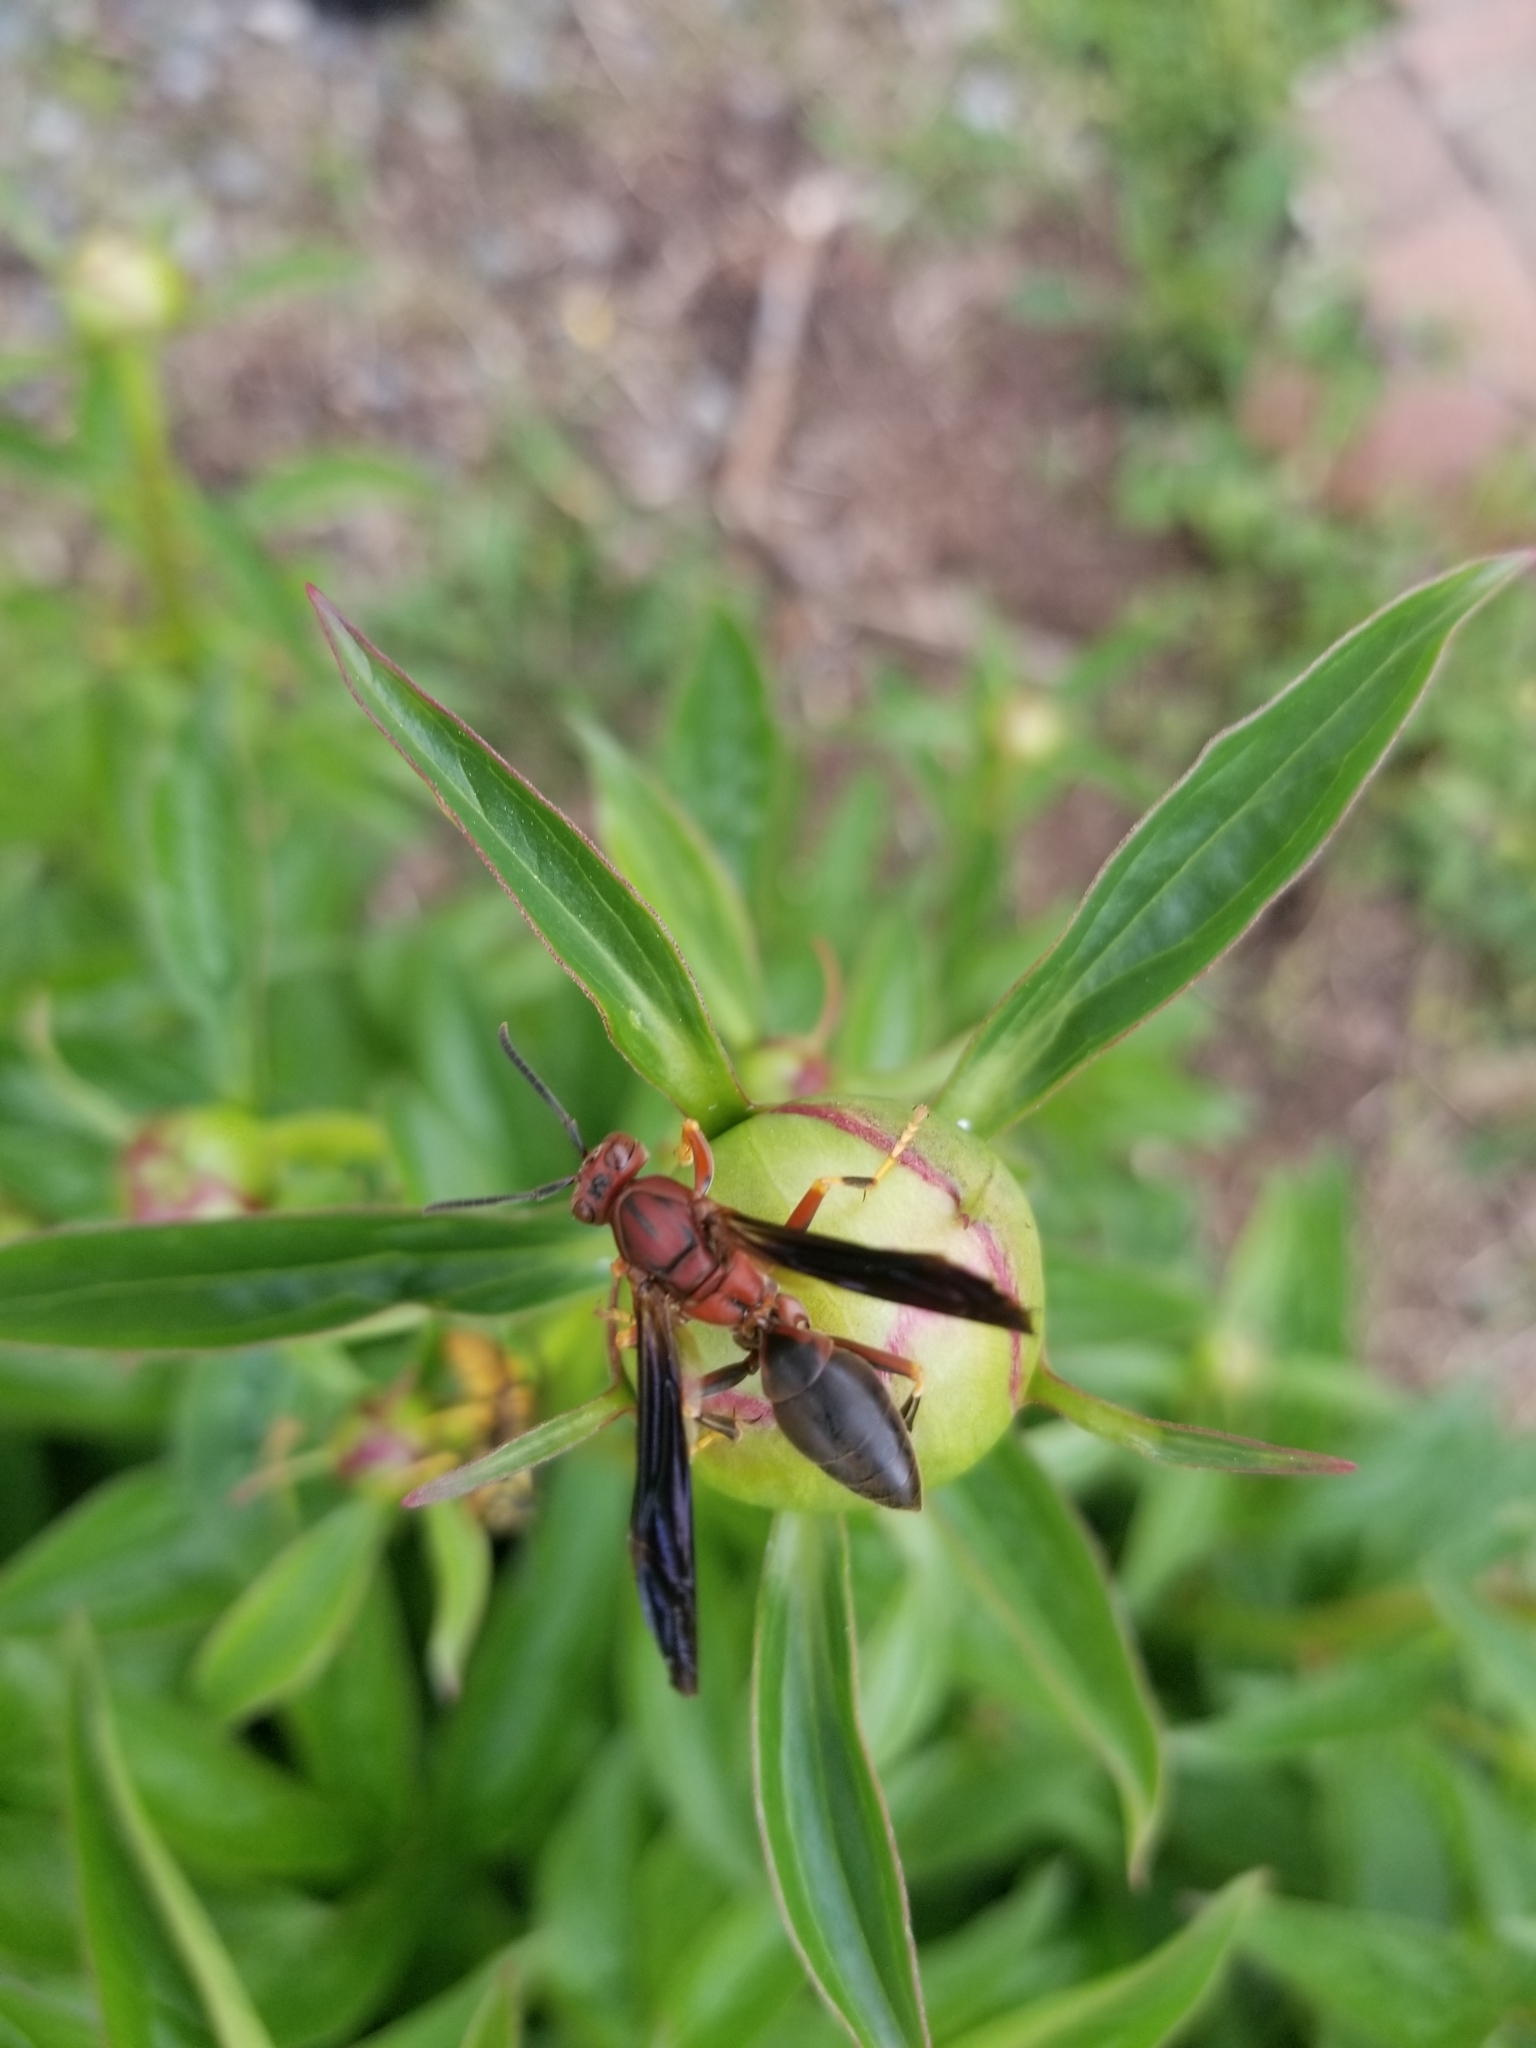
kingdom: Animalia
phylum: Arthropoda
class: Insecta
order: Hymenoptera
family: Eumenidae
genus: Polistes
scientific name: Polistes metricus
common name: Metric paper wasp
